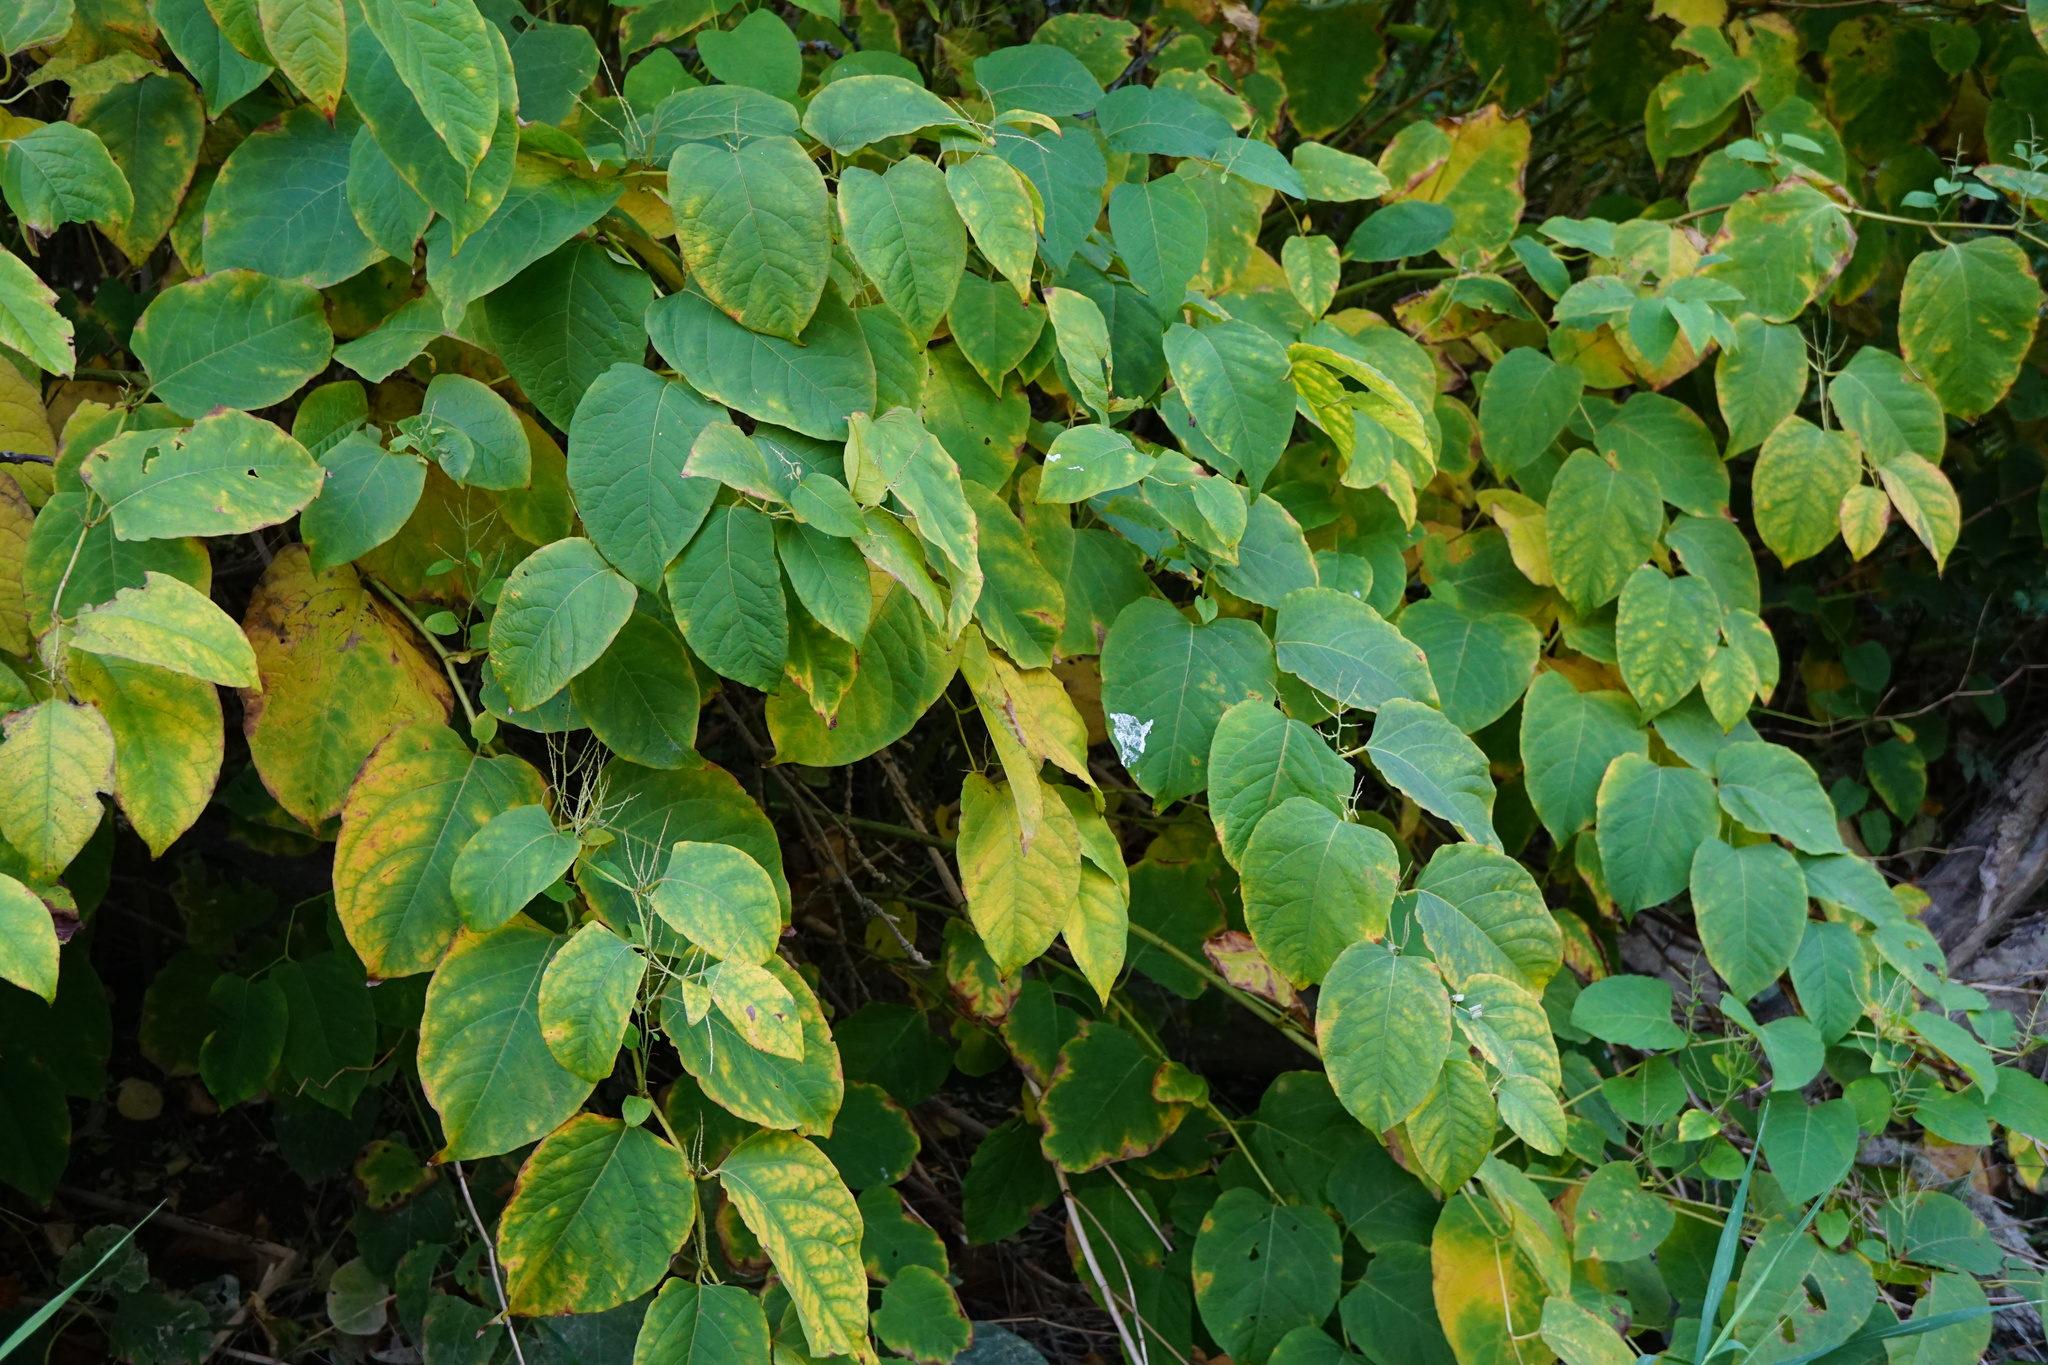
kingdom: Plantae
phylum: Tracheophyta
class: Magnoliopsida
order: Caryophyllales
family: Polygonaceae
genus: Reynoutria
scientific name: Reynoutria bohemica
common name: Bohemian knotweed
